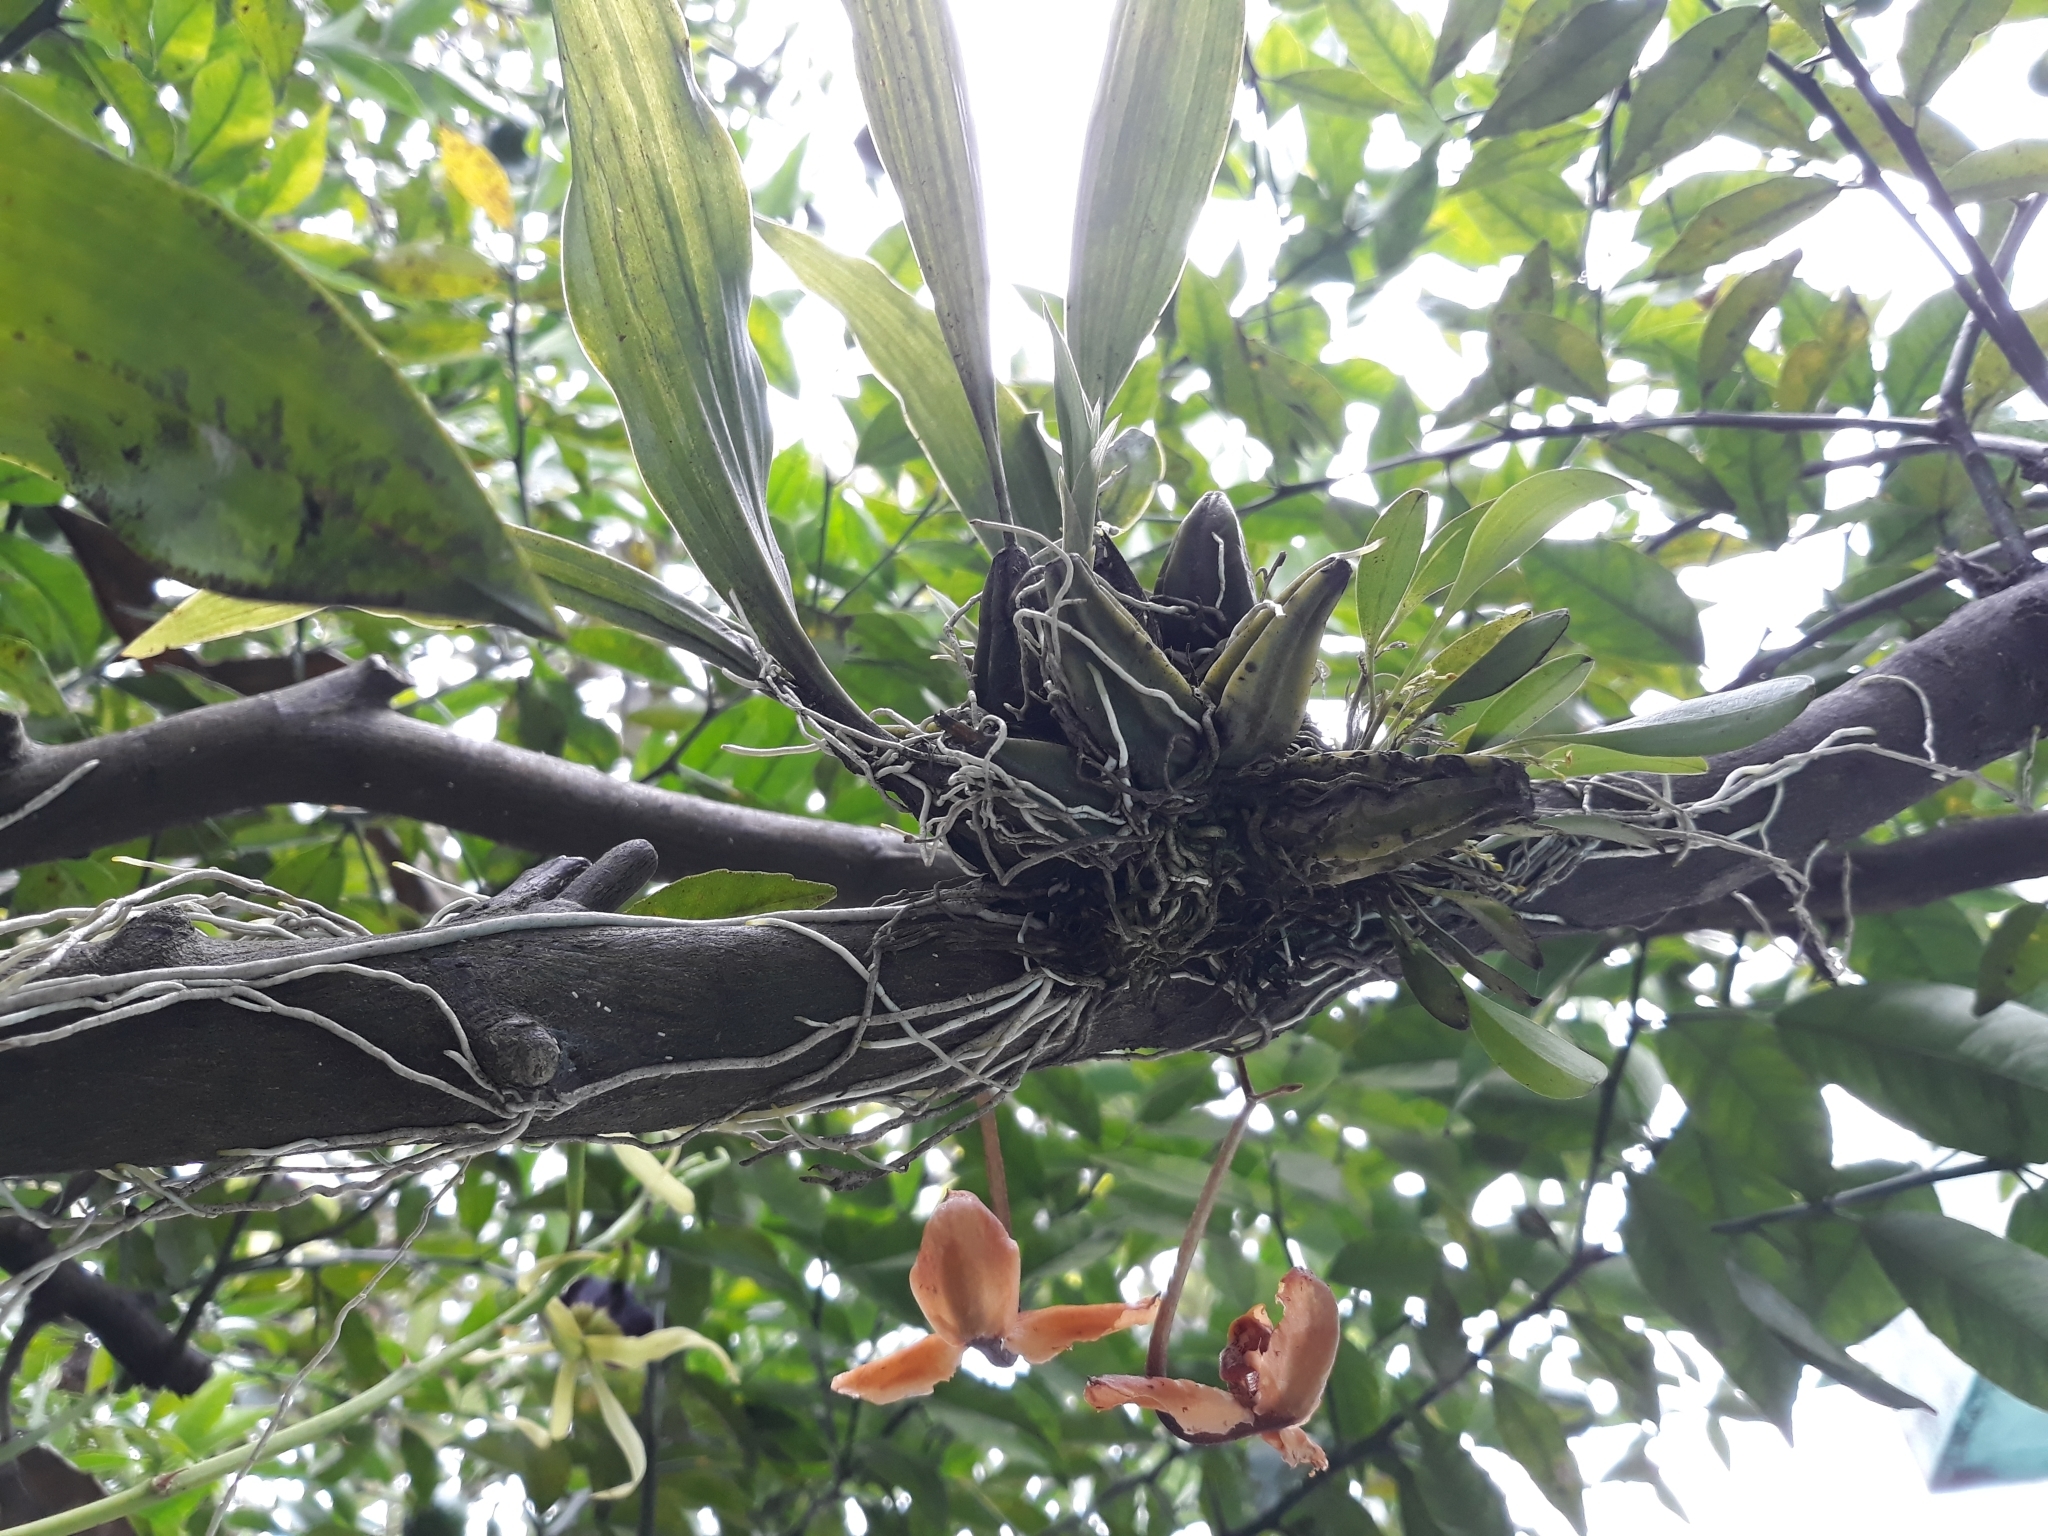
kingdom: Plantae
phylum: Tracheophyta
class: Liliopsida
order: Asparagales
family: Orchidaceae
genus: Gongora
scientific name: Gongora galeata
